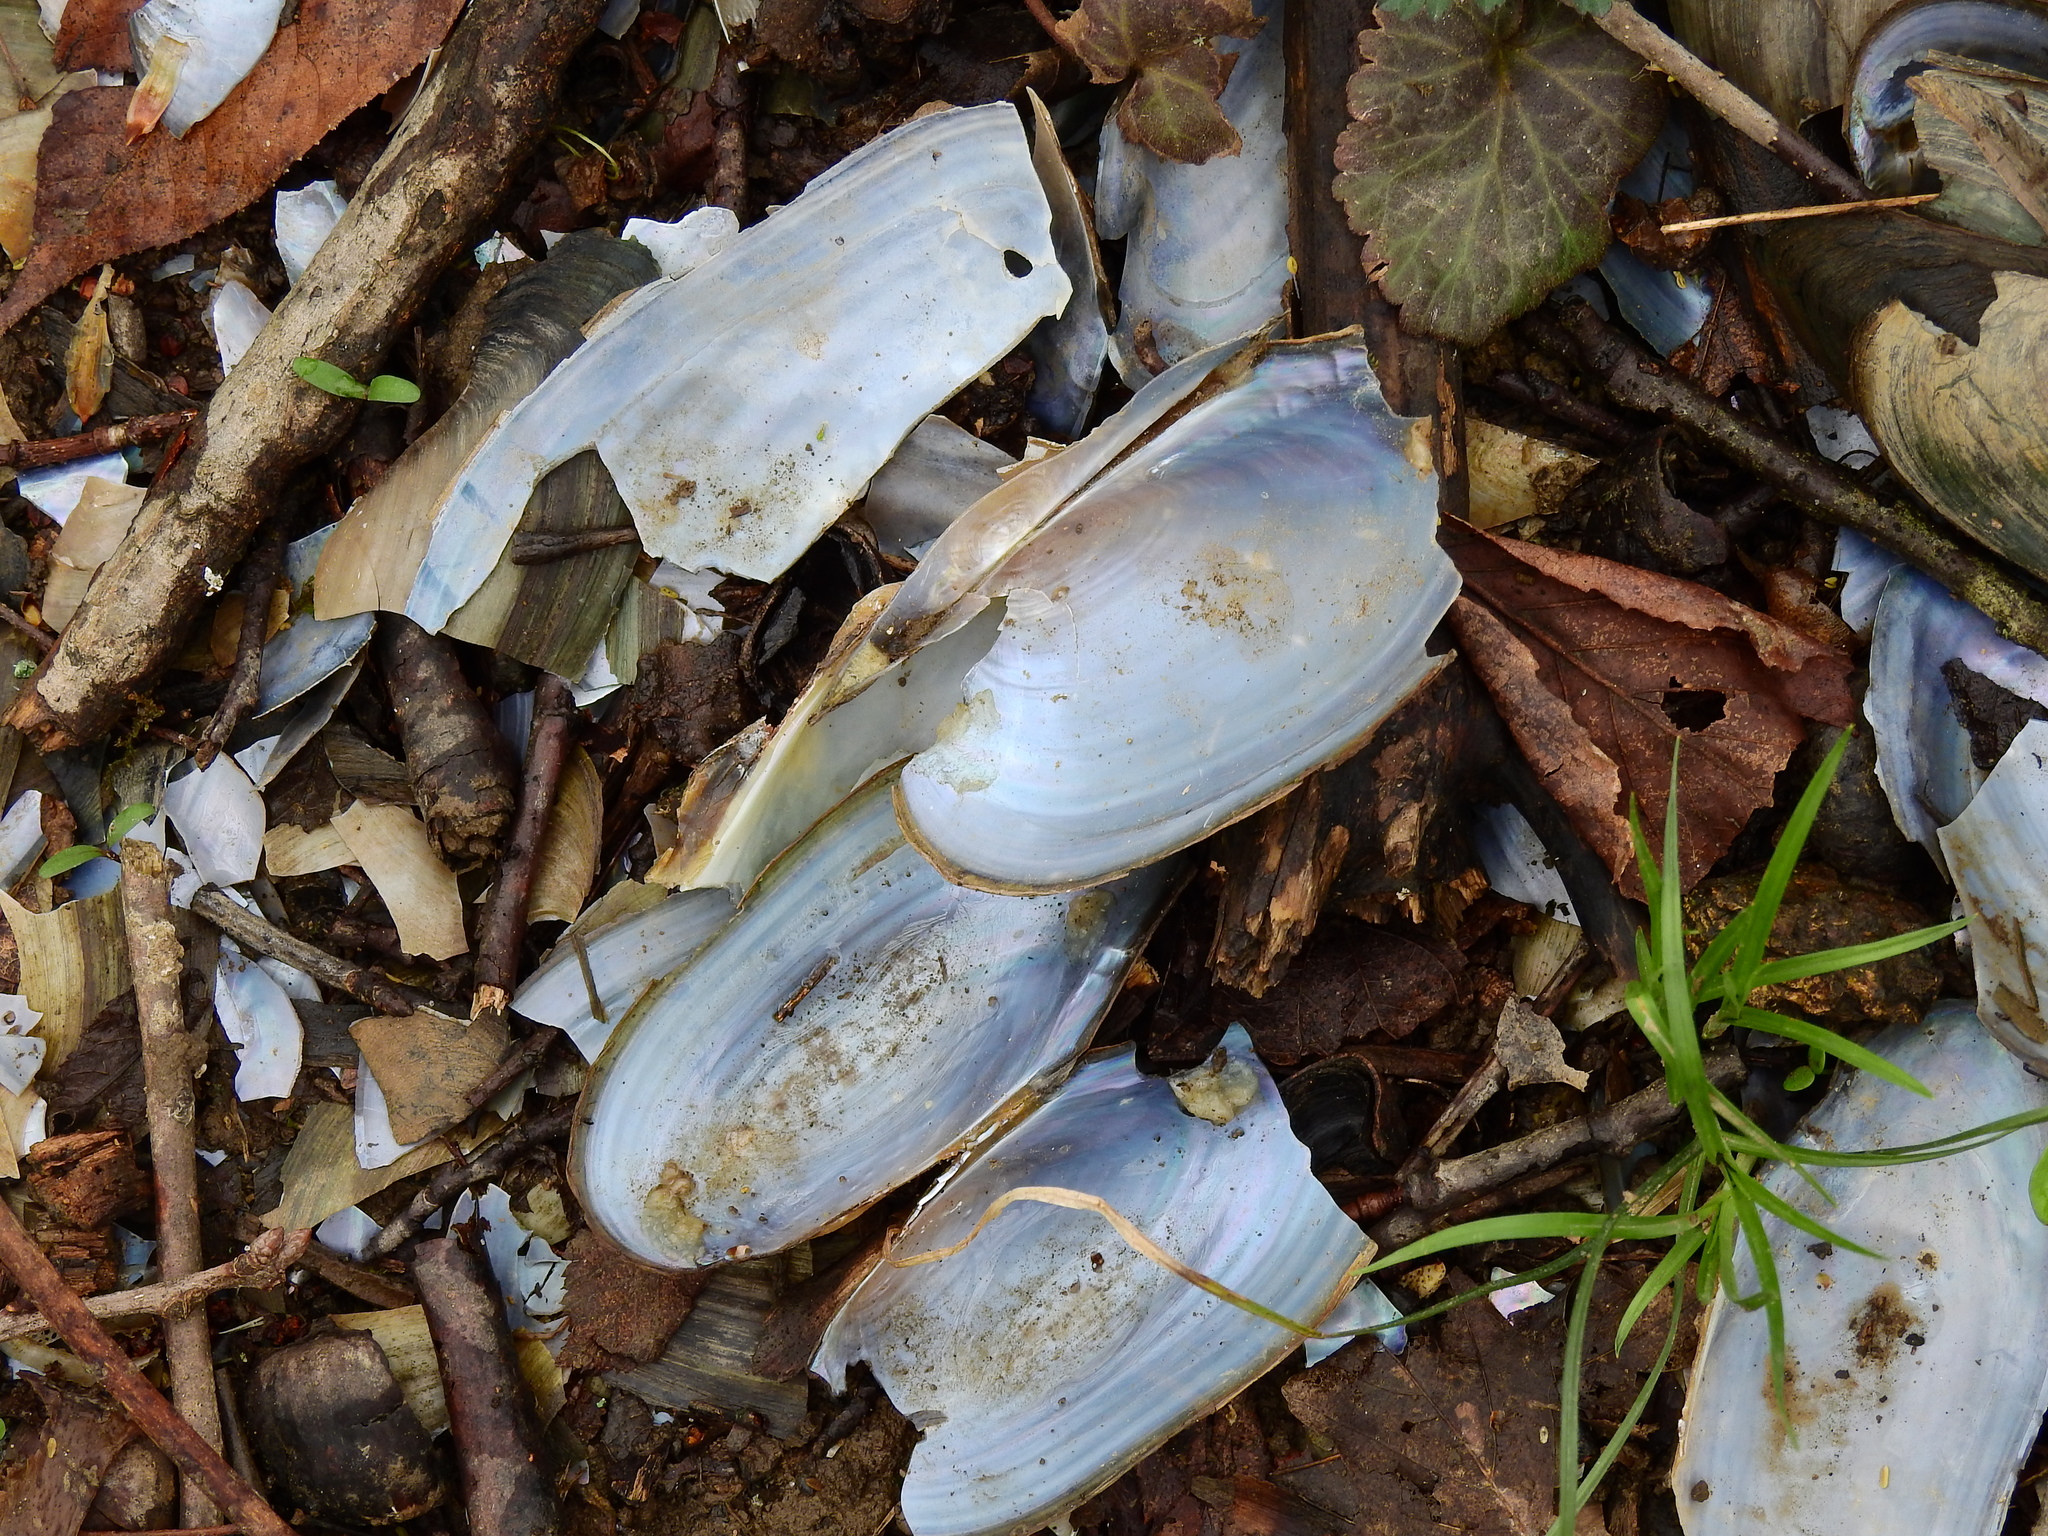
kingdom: Animalia
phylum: Mollusca
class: Bivalvia
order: Unionida
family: Unionidae
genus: Utterbackia
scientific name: Utterbackia imbecillis
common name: Paper pondshell
